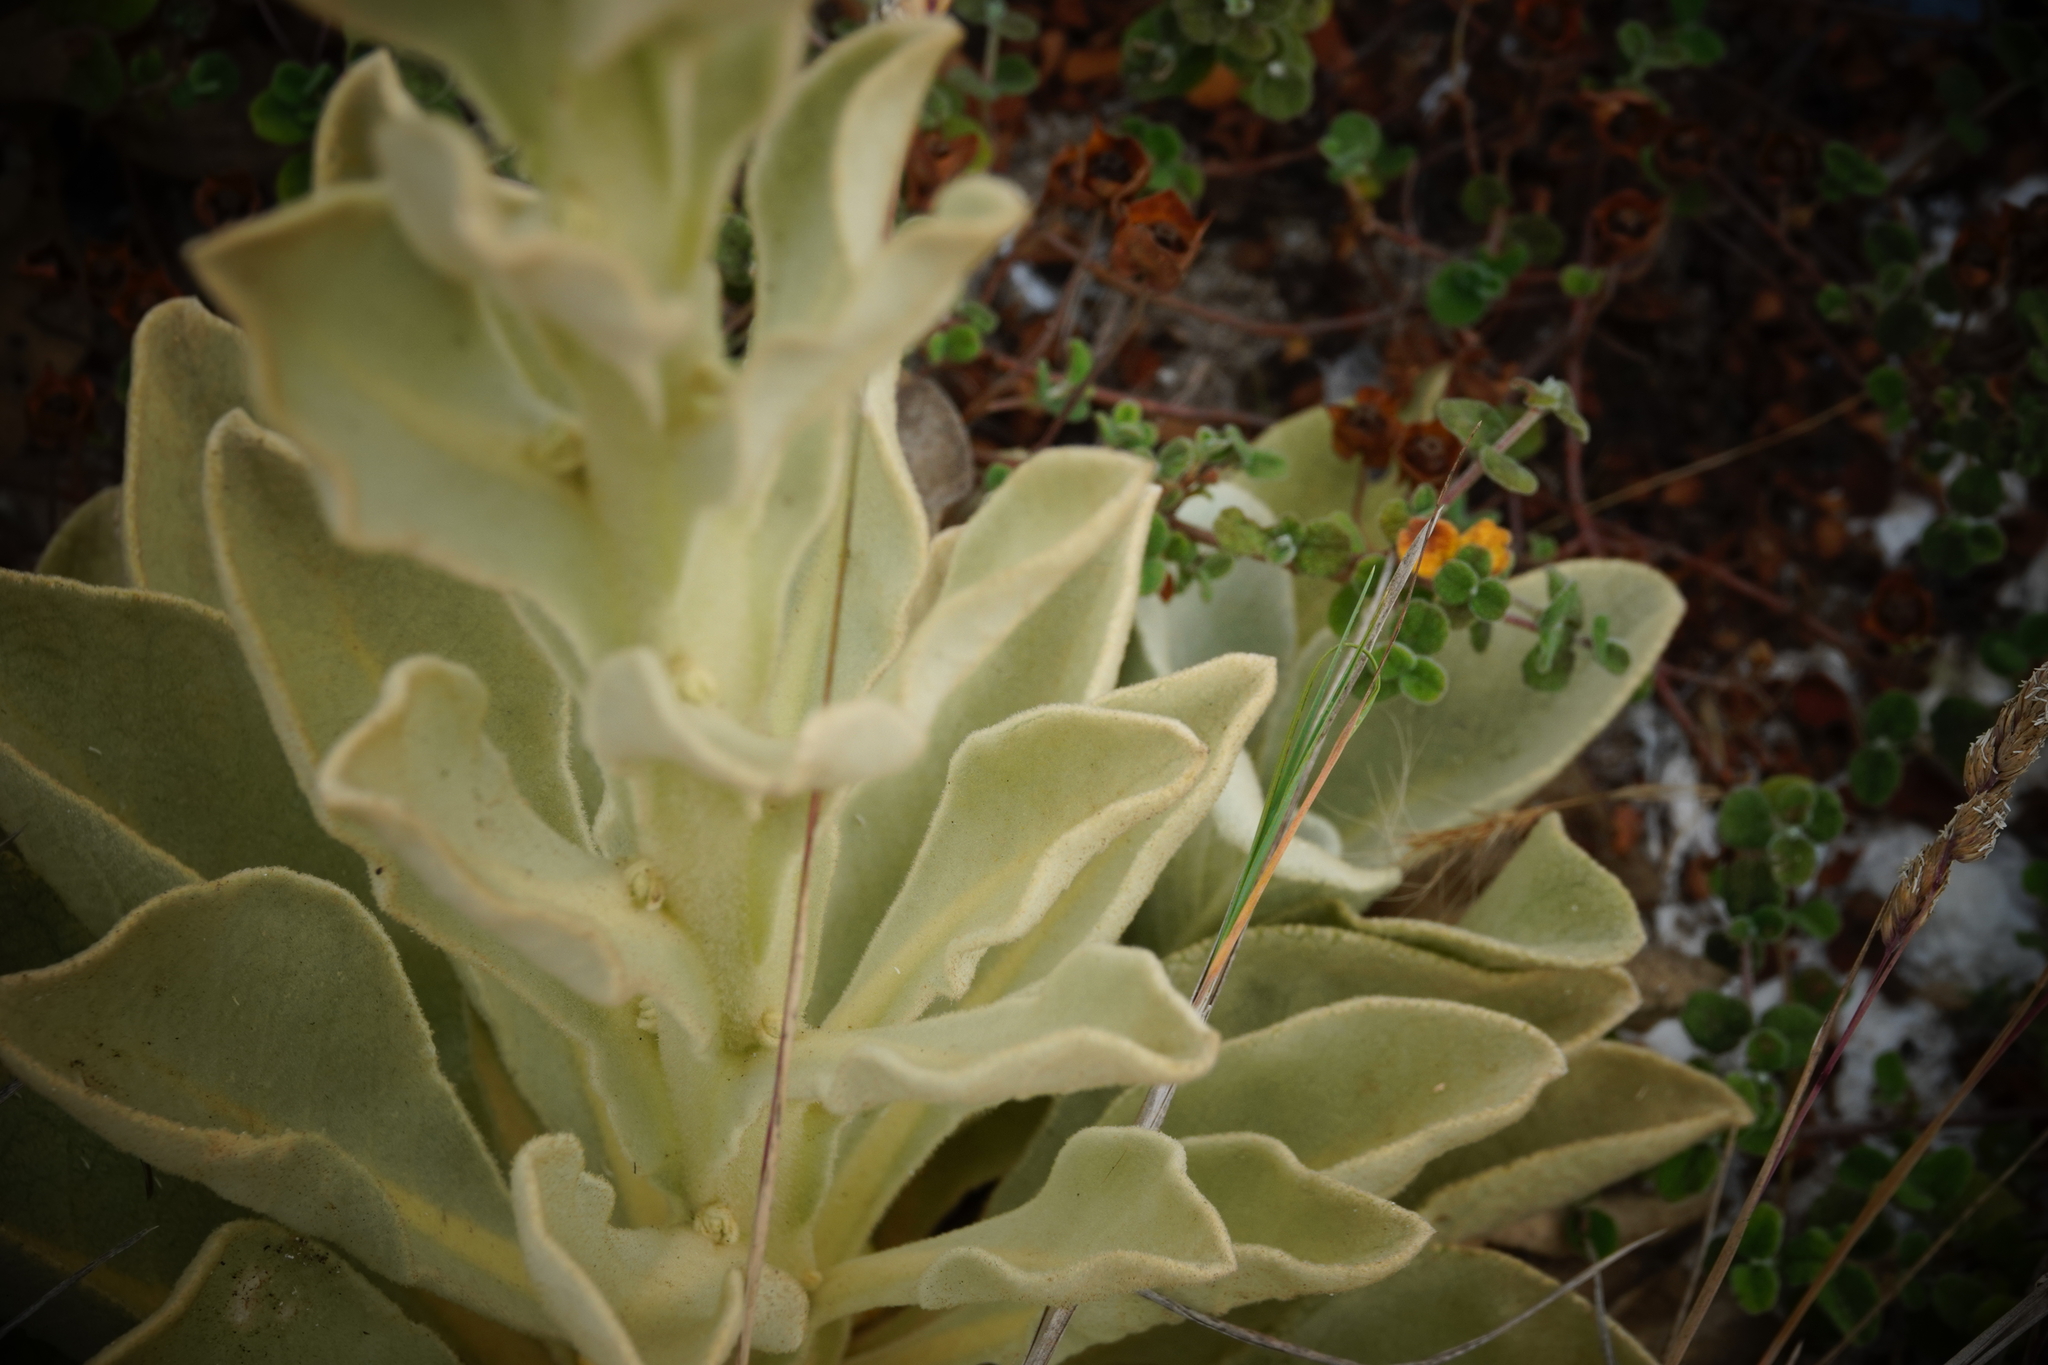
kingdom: Plantae
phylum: Tracheophyta
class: Magnoliopsida
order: Lamiales
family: Scrophulariaceae
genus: Verbascum
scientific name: Verbascum litigiosum
